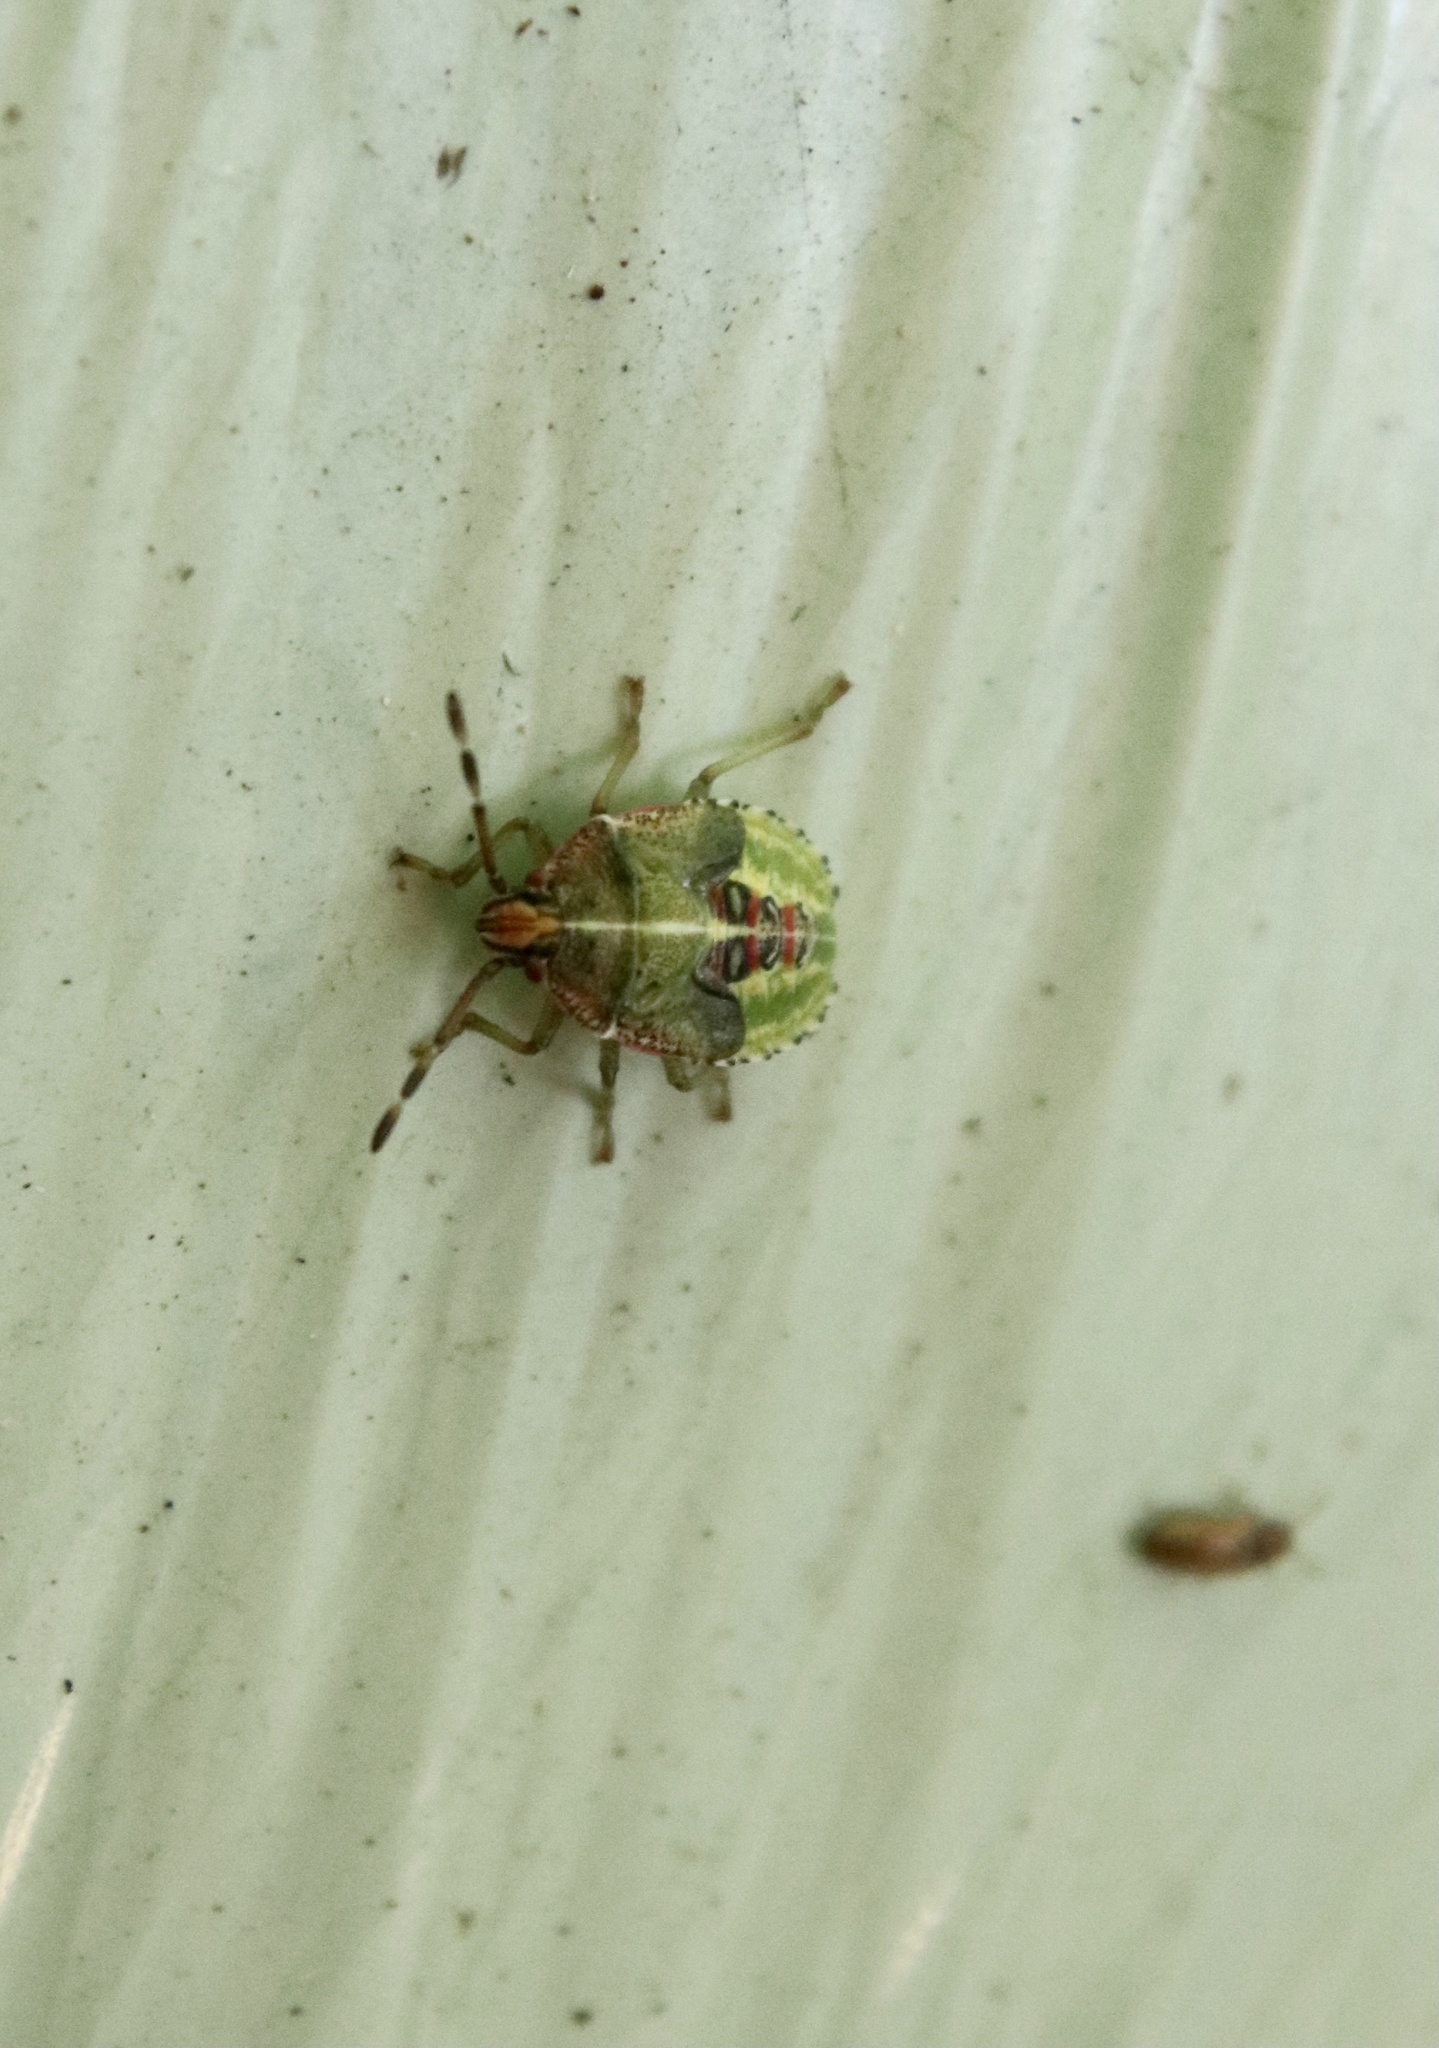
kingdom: Animalia
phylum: Arthropoda
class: Insecta
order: Hemiptera
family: Acanthosomatidae
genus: Sinopla
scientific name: Sinopla perpunctatus
